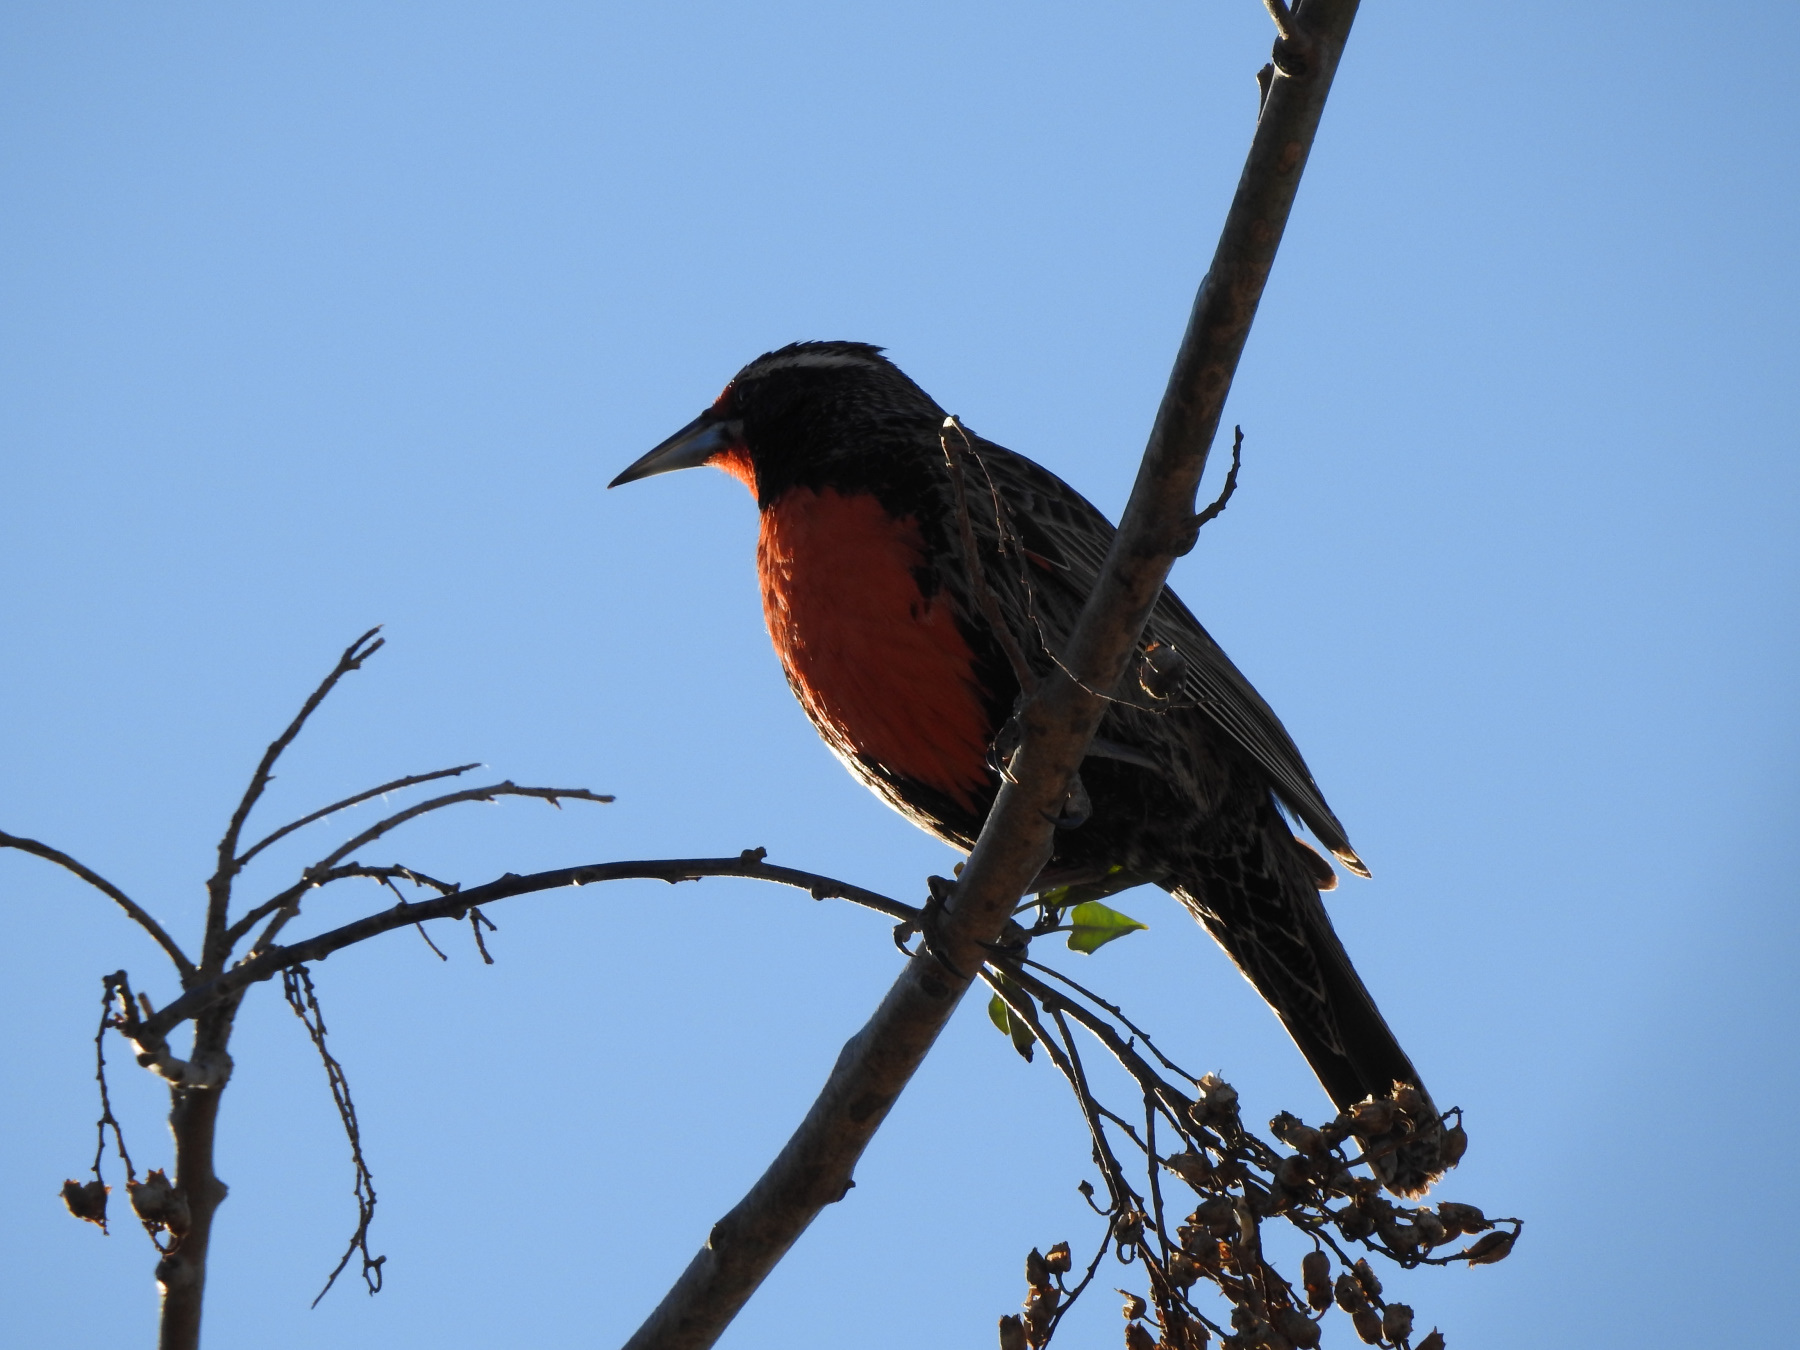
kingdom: Animalia
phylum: Chordata
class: Aves
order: Passeriformes
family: Icteridae
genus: Sturnella
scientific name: Sturnella loyca
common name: Long-tailed meadowlark
